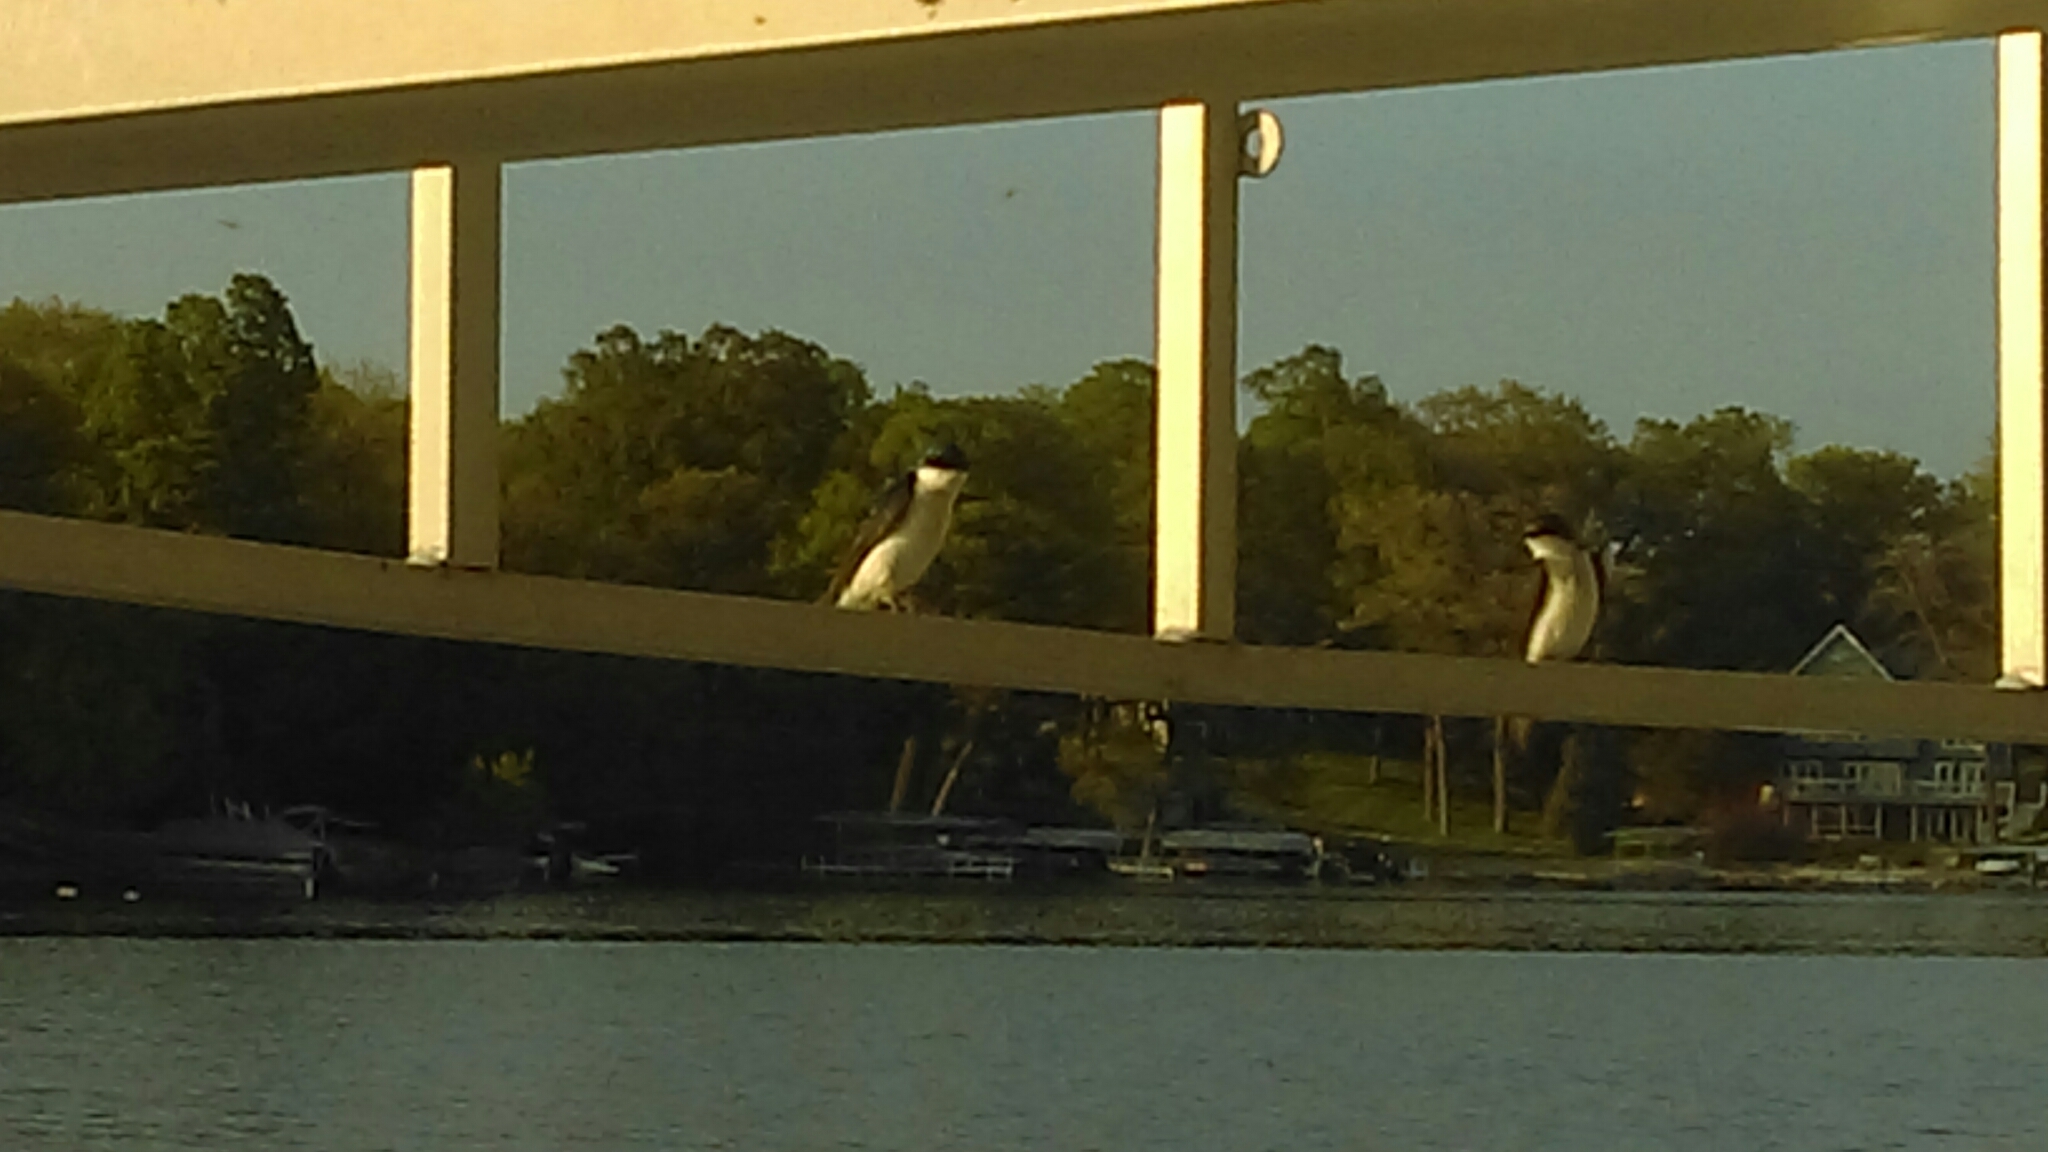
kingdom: Animalia
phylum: Chordata
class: Aves
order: Passeriformes
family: Hirundinidae
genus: Tachycineta
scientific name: Tachycineta bicolor
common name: Tree swallow
